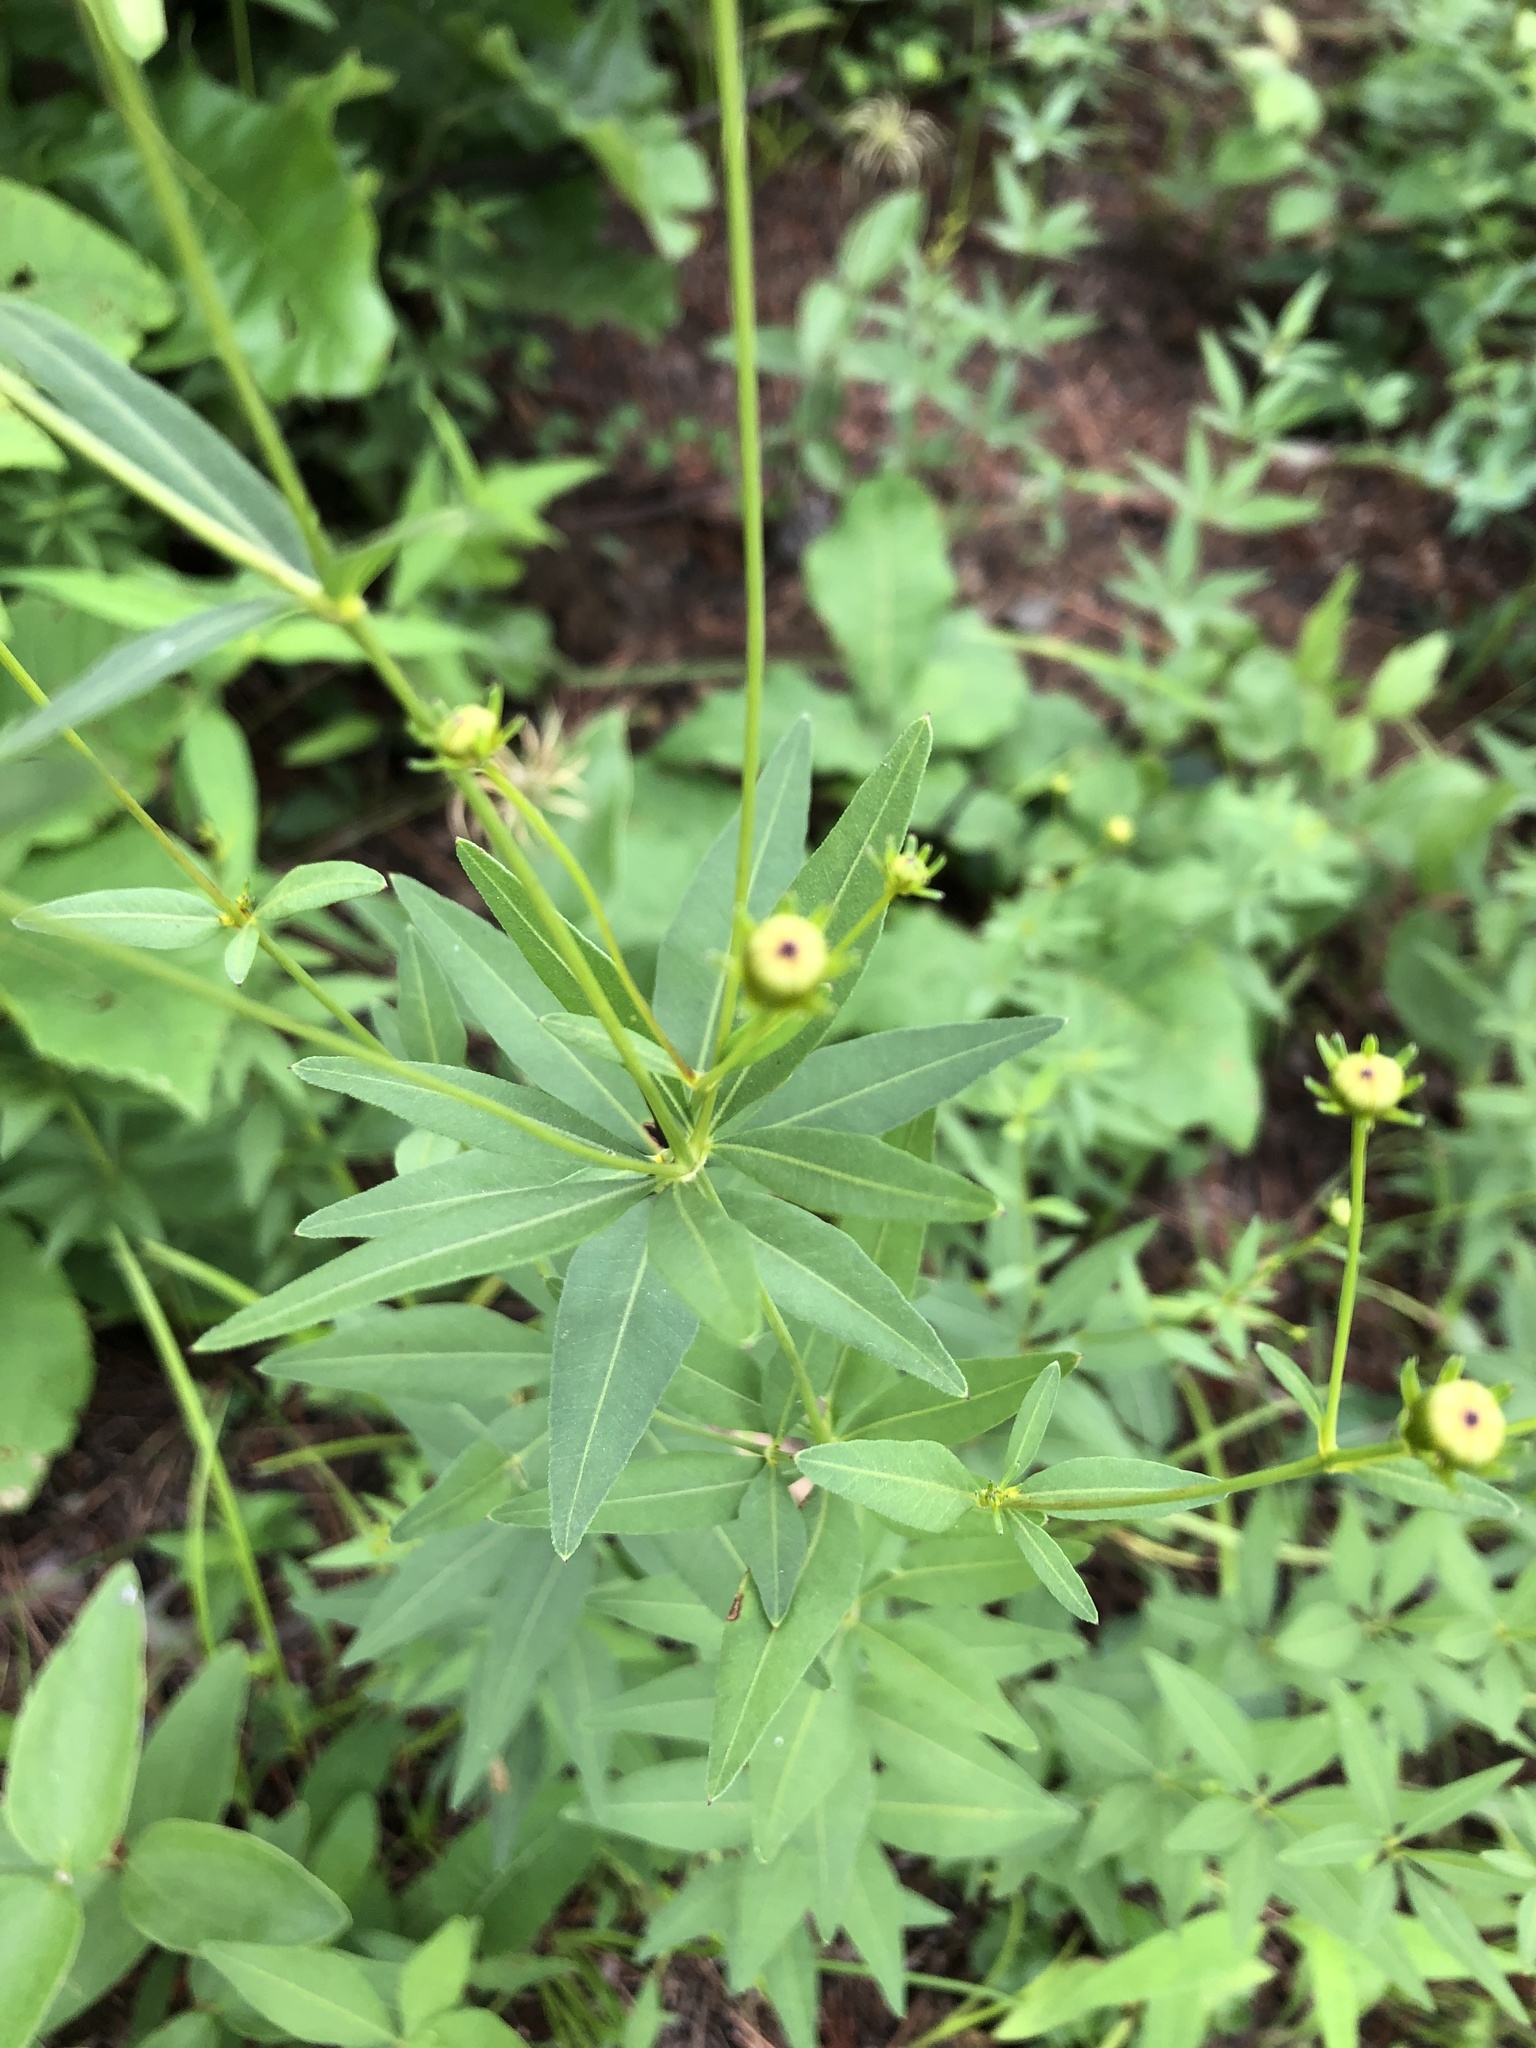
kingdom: Plantae
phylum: Tracheophyta
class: Magnoliopsida
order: Asterales
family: Asteraceae
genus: Coreopsis
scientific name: Coreopsis major
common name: Forest tickseed
